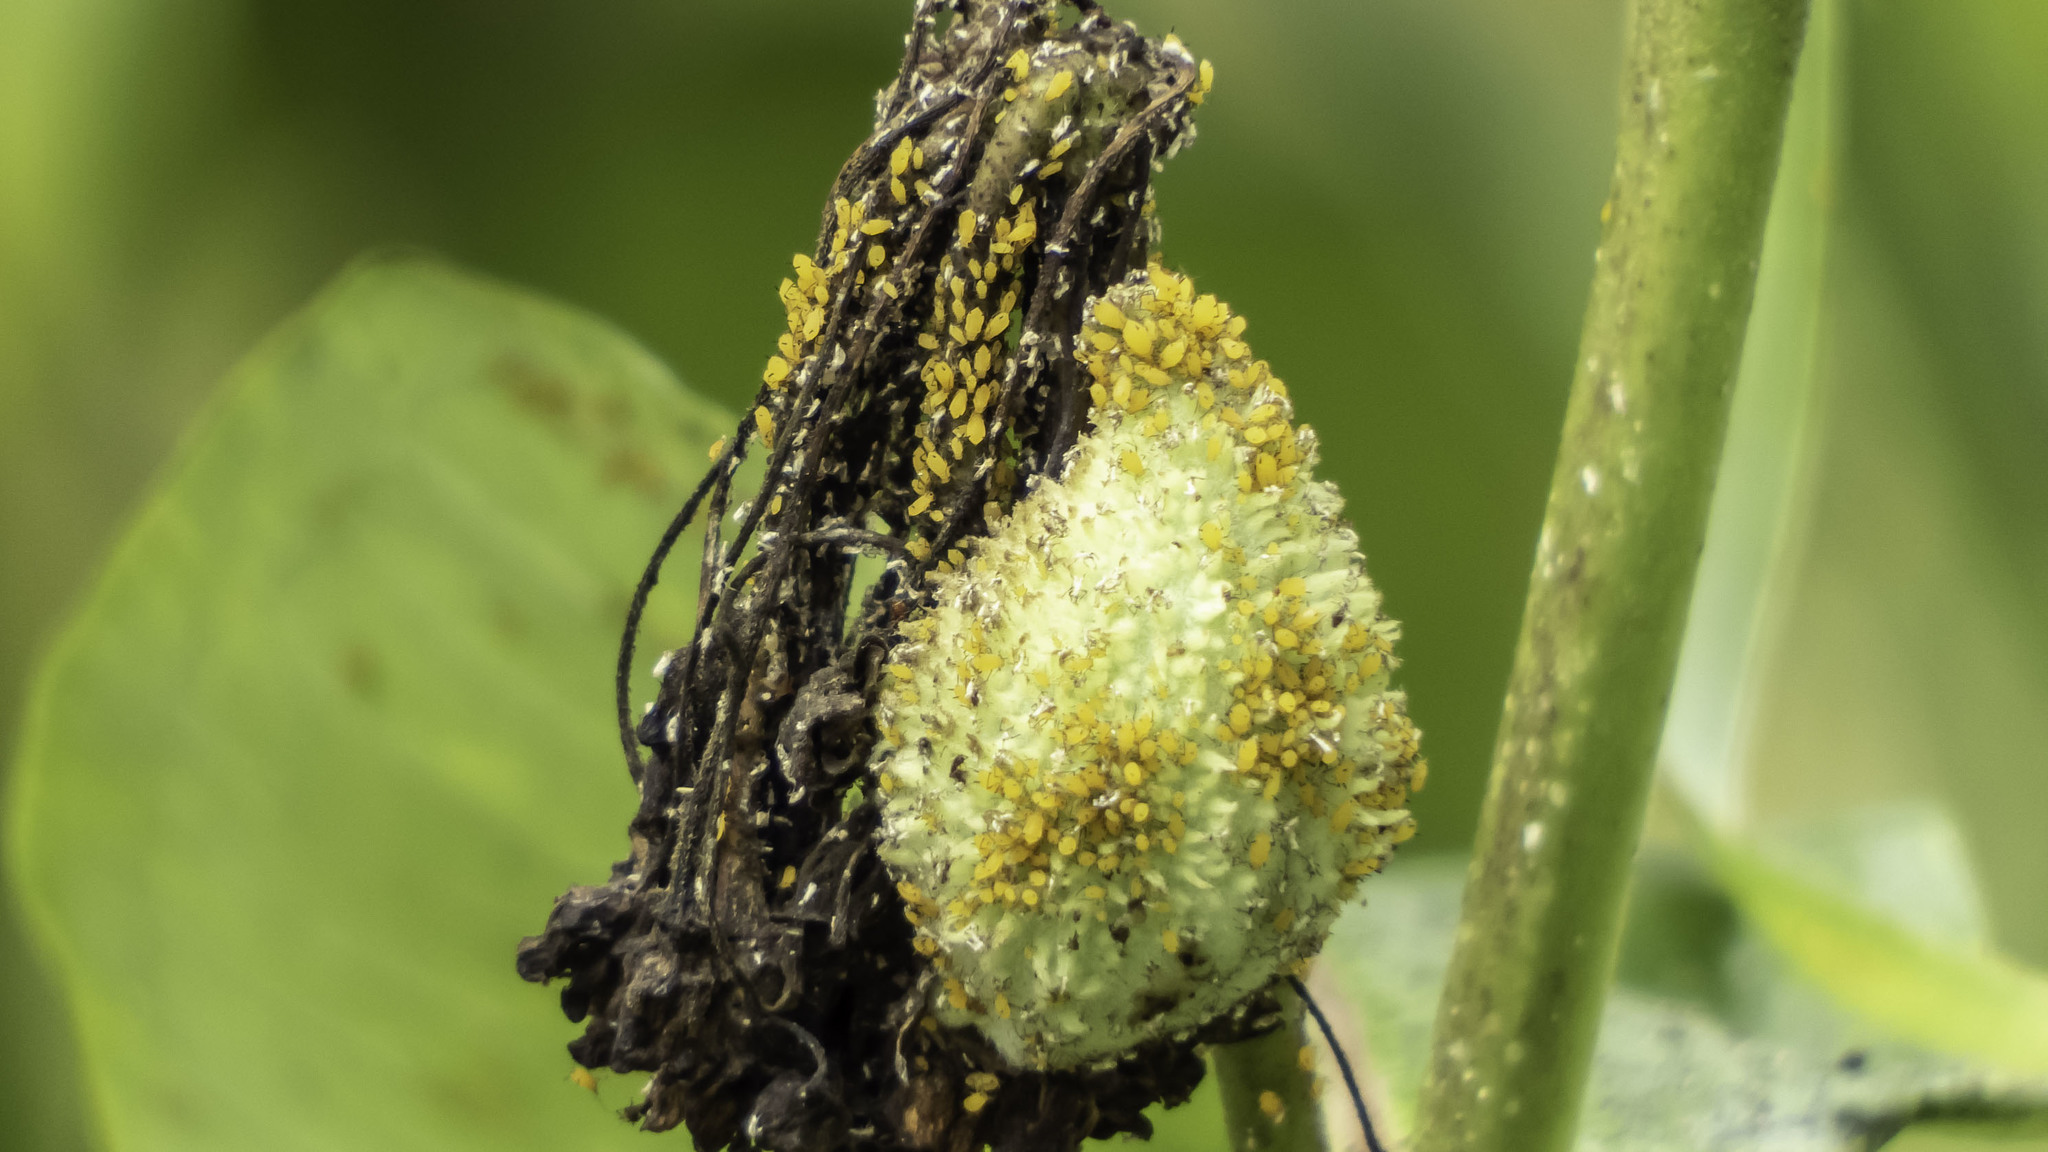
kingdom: Animalia
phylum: Arthropoda
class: Insecta
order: Hemiptera
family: Aphididae
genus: Aphis
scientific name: Aphis nerii
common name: Oleander aphid
